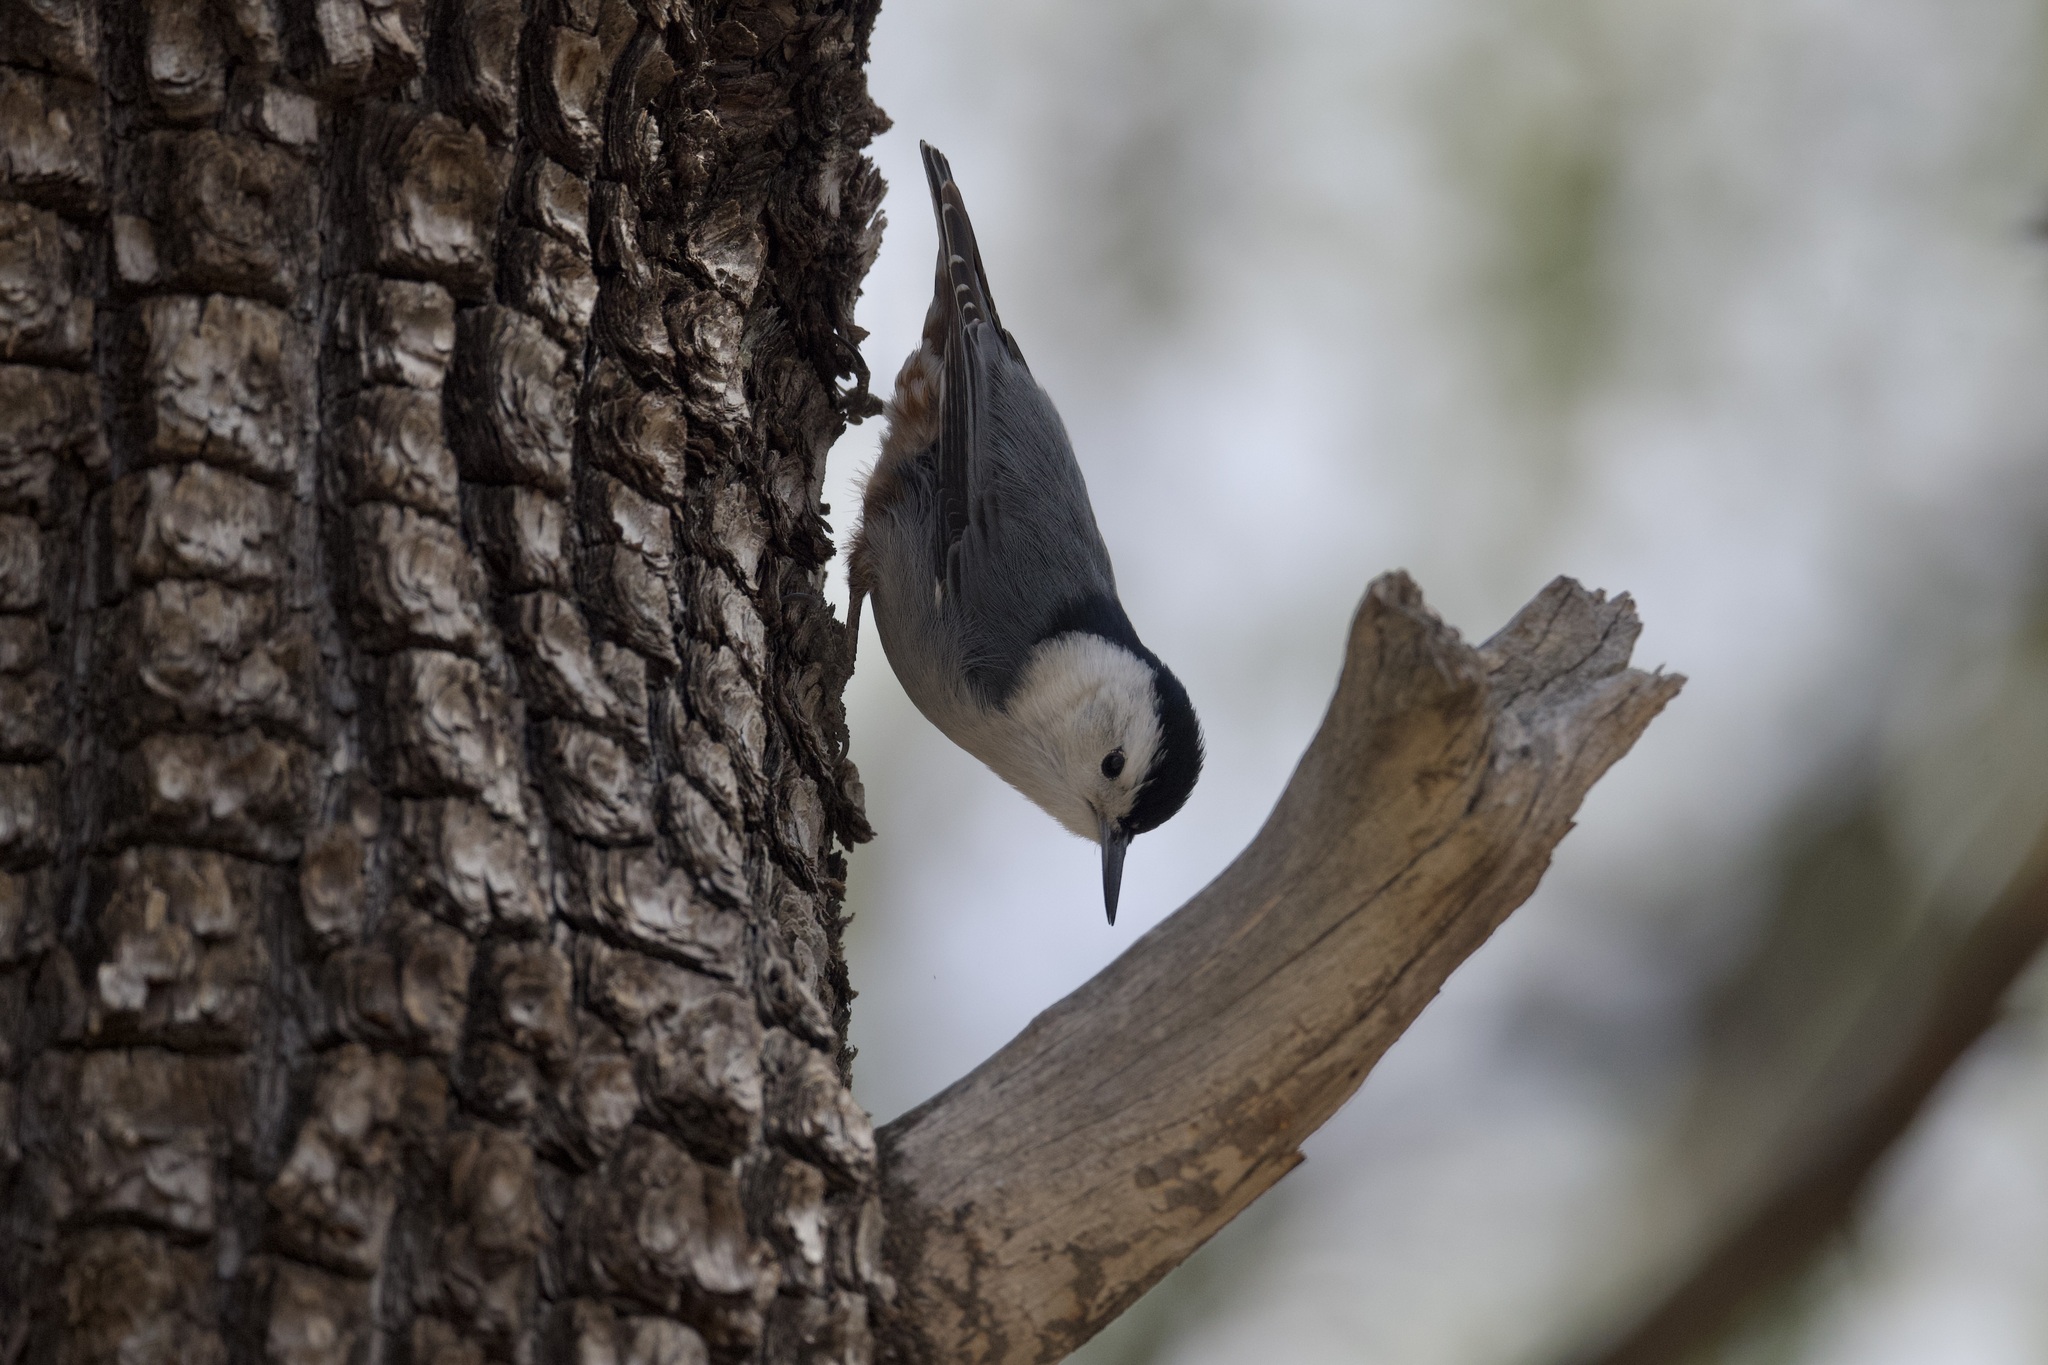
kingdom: Animalia
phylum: Chordata
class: Aves
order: Passeriformes
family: Sittidae
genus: Sitta
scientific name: Sitta carolinensis
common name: White-breasted nuthatch
